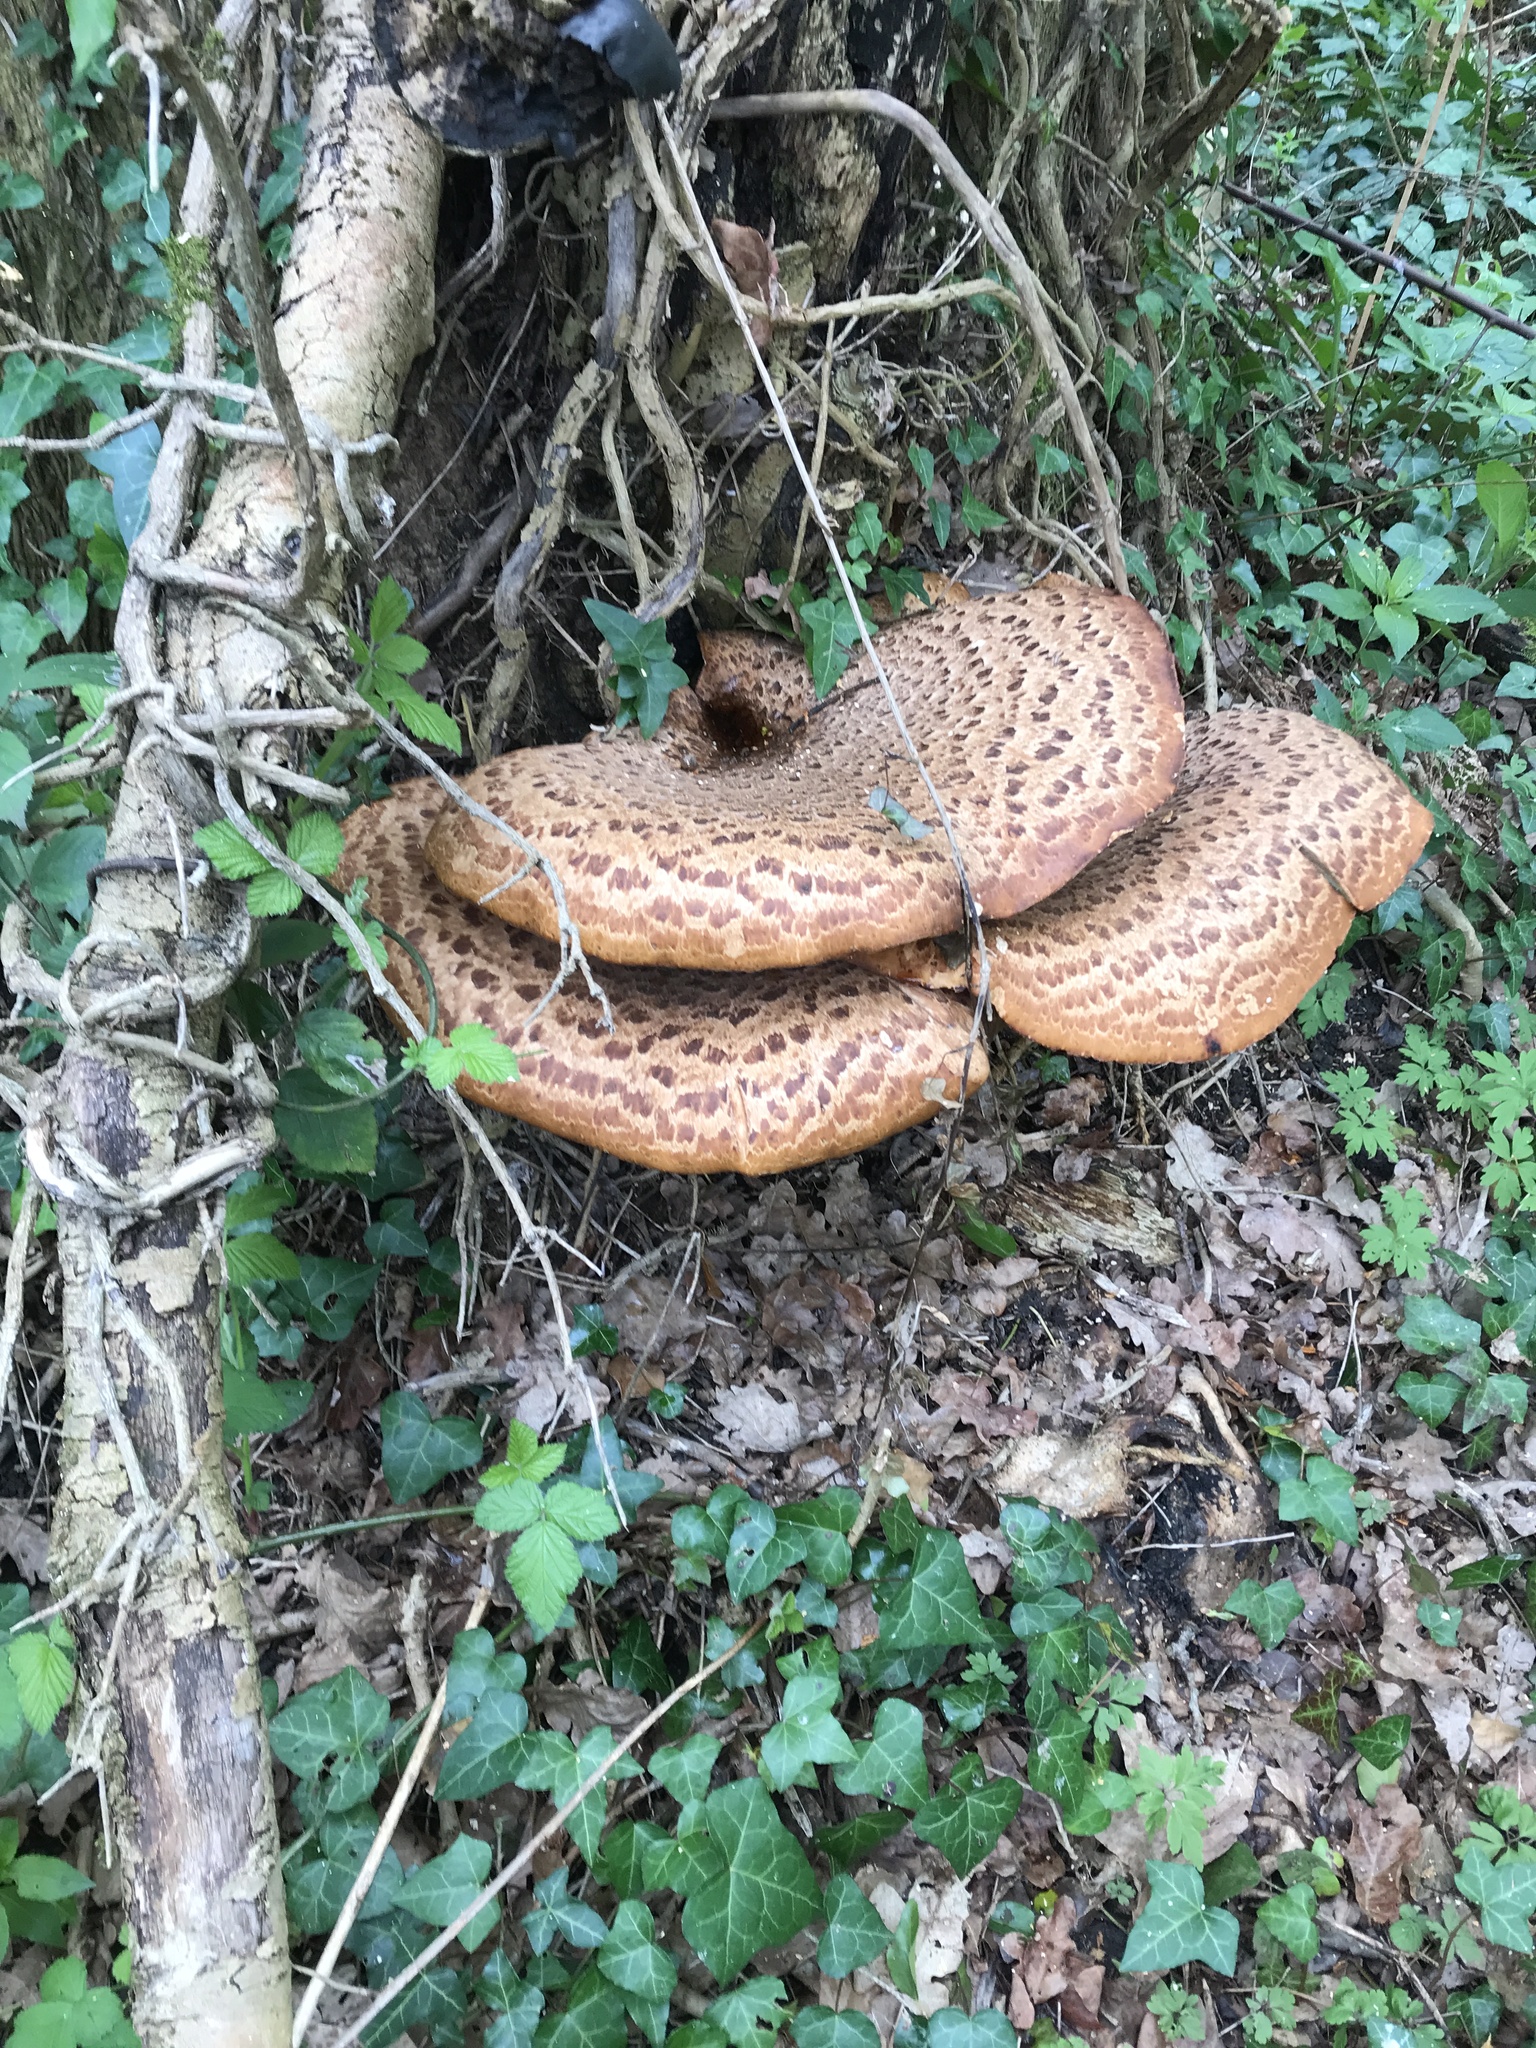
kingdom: Fungi
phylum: Basidiomycota
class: Agaricomycetes
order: Polyporales
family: Polyporaceae
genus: Cerioporus
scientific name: Cerioporus squamosus
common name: Dryad's saddle
